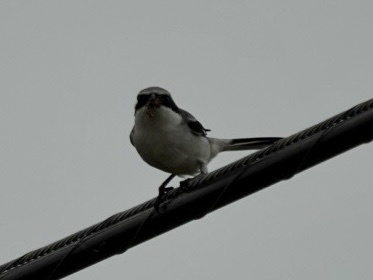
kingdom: Animalia
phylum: Chordata
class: Aves
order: Passeriformes
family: Laniidae
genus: Lanius
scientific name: Lanius ludovicianus
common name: Loggerhead shrike
